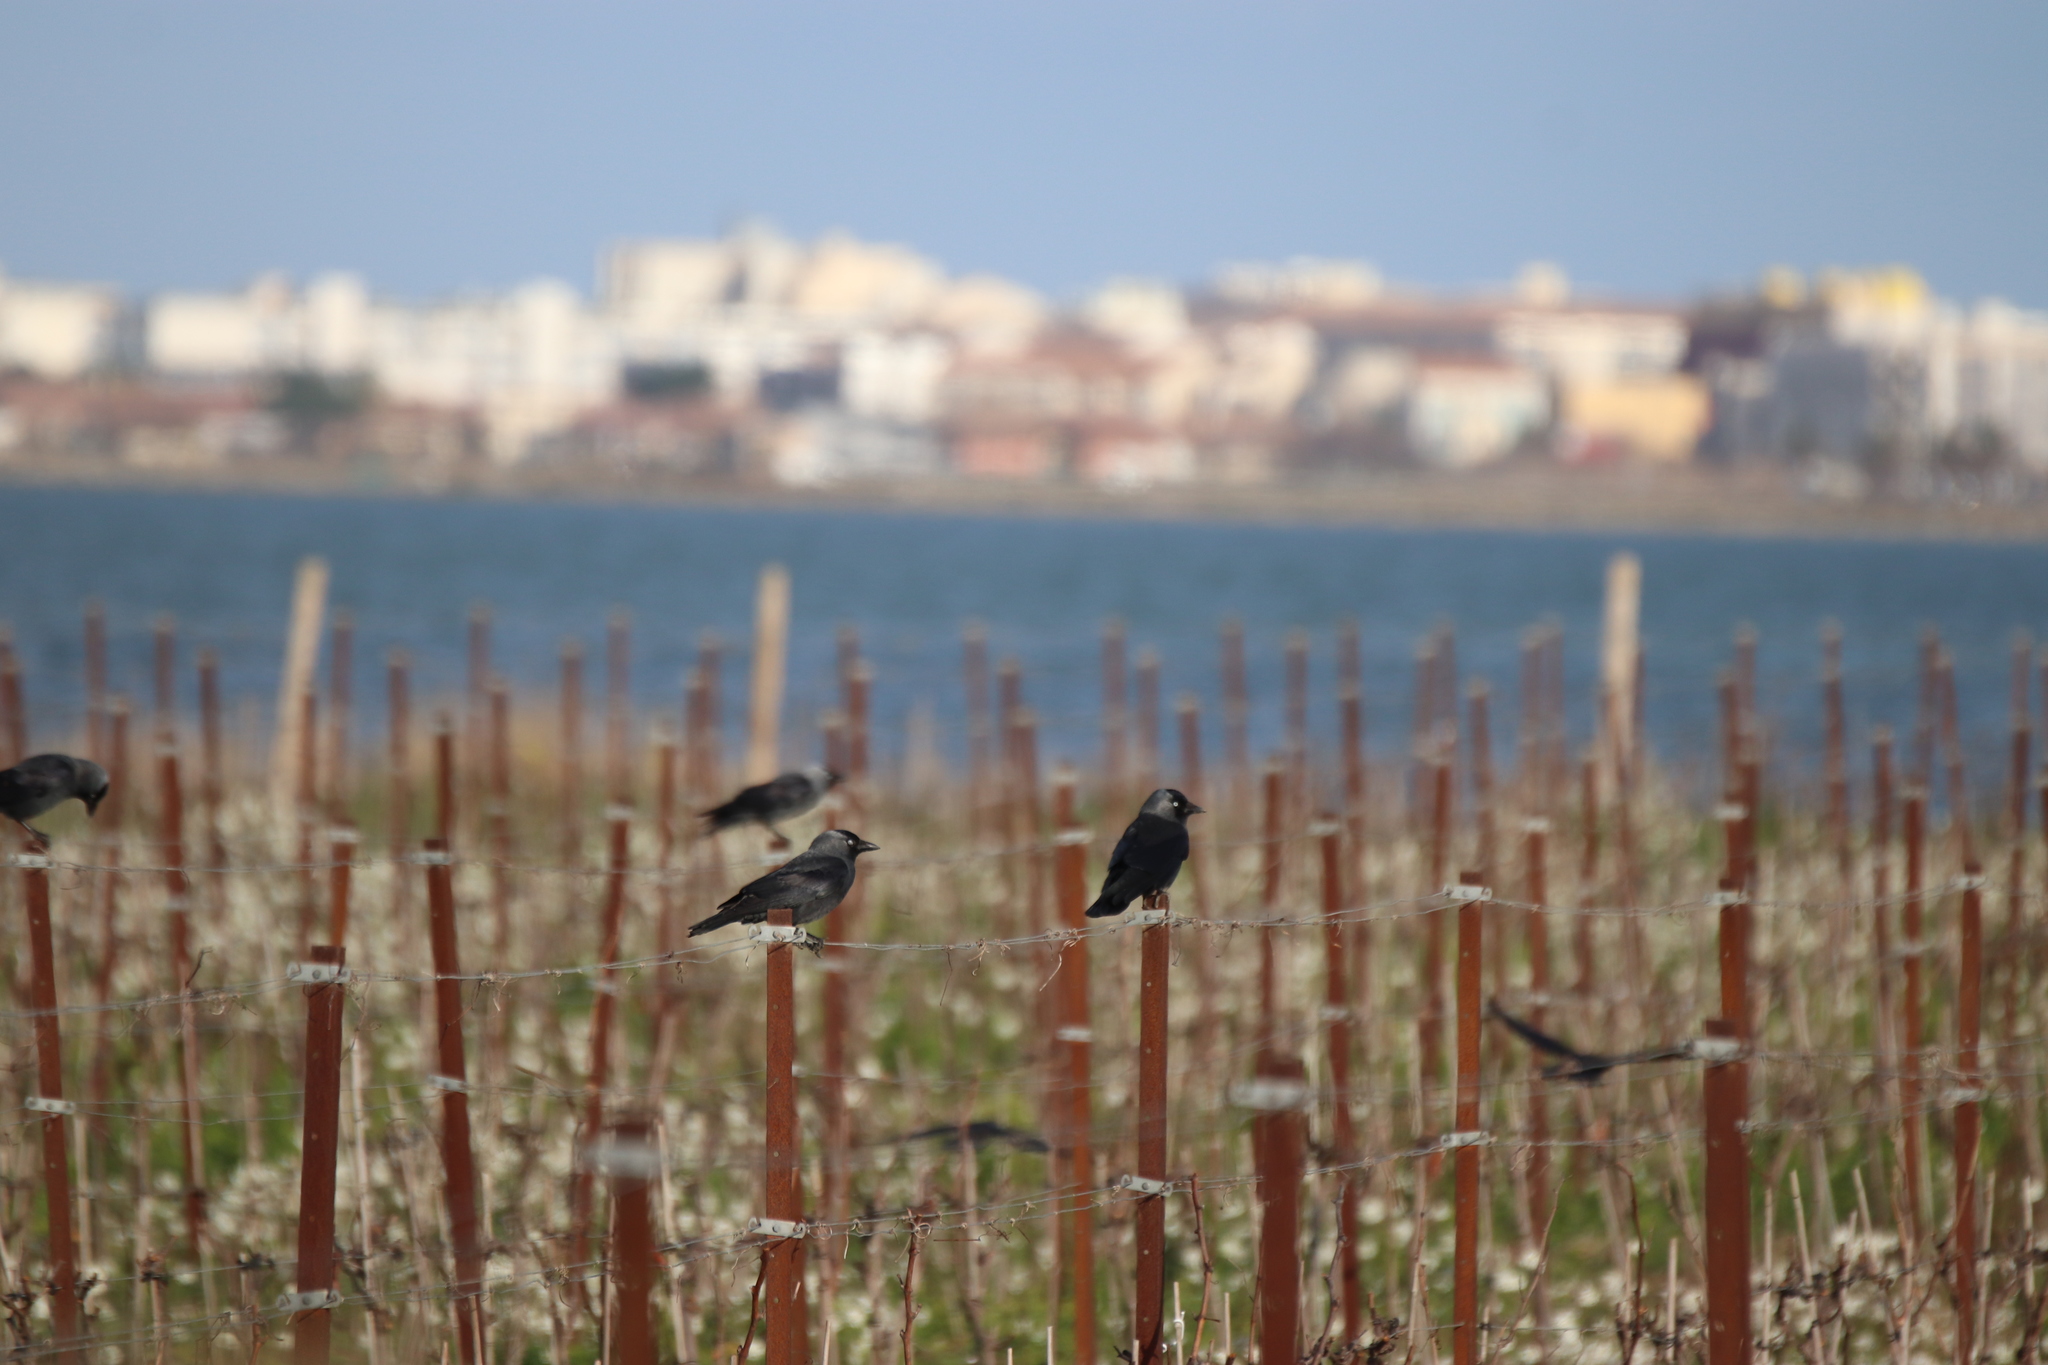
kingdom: Animalia
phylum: Chordata
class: Aves
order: Passeriformes
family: Corvidae
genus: Coloeus
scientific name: Coloeus monedula
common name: Western jackdaw
